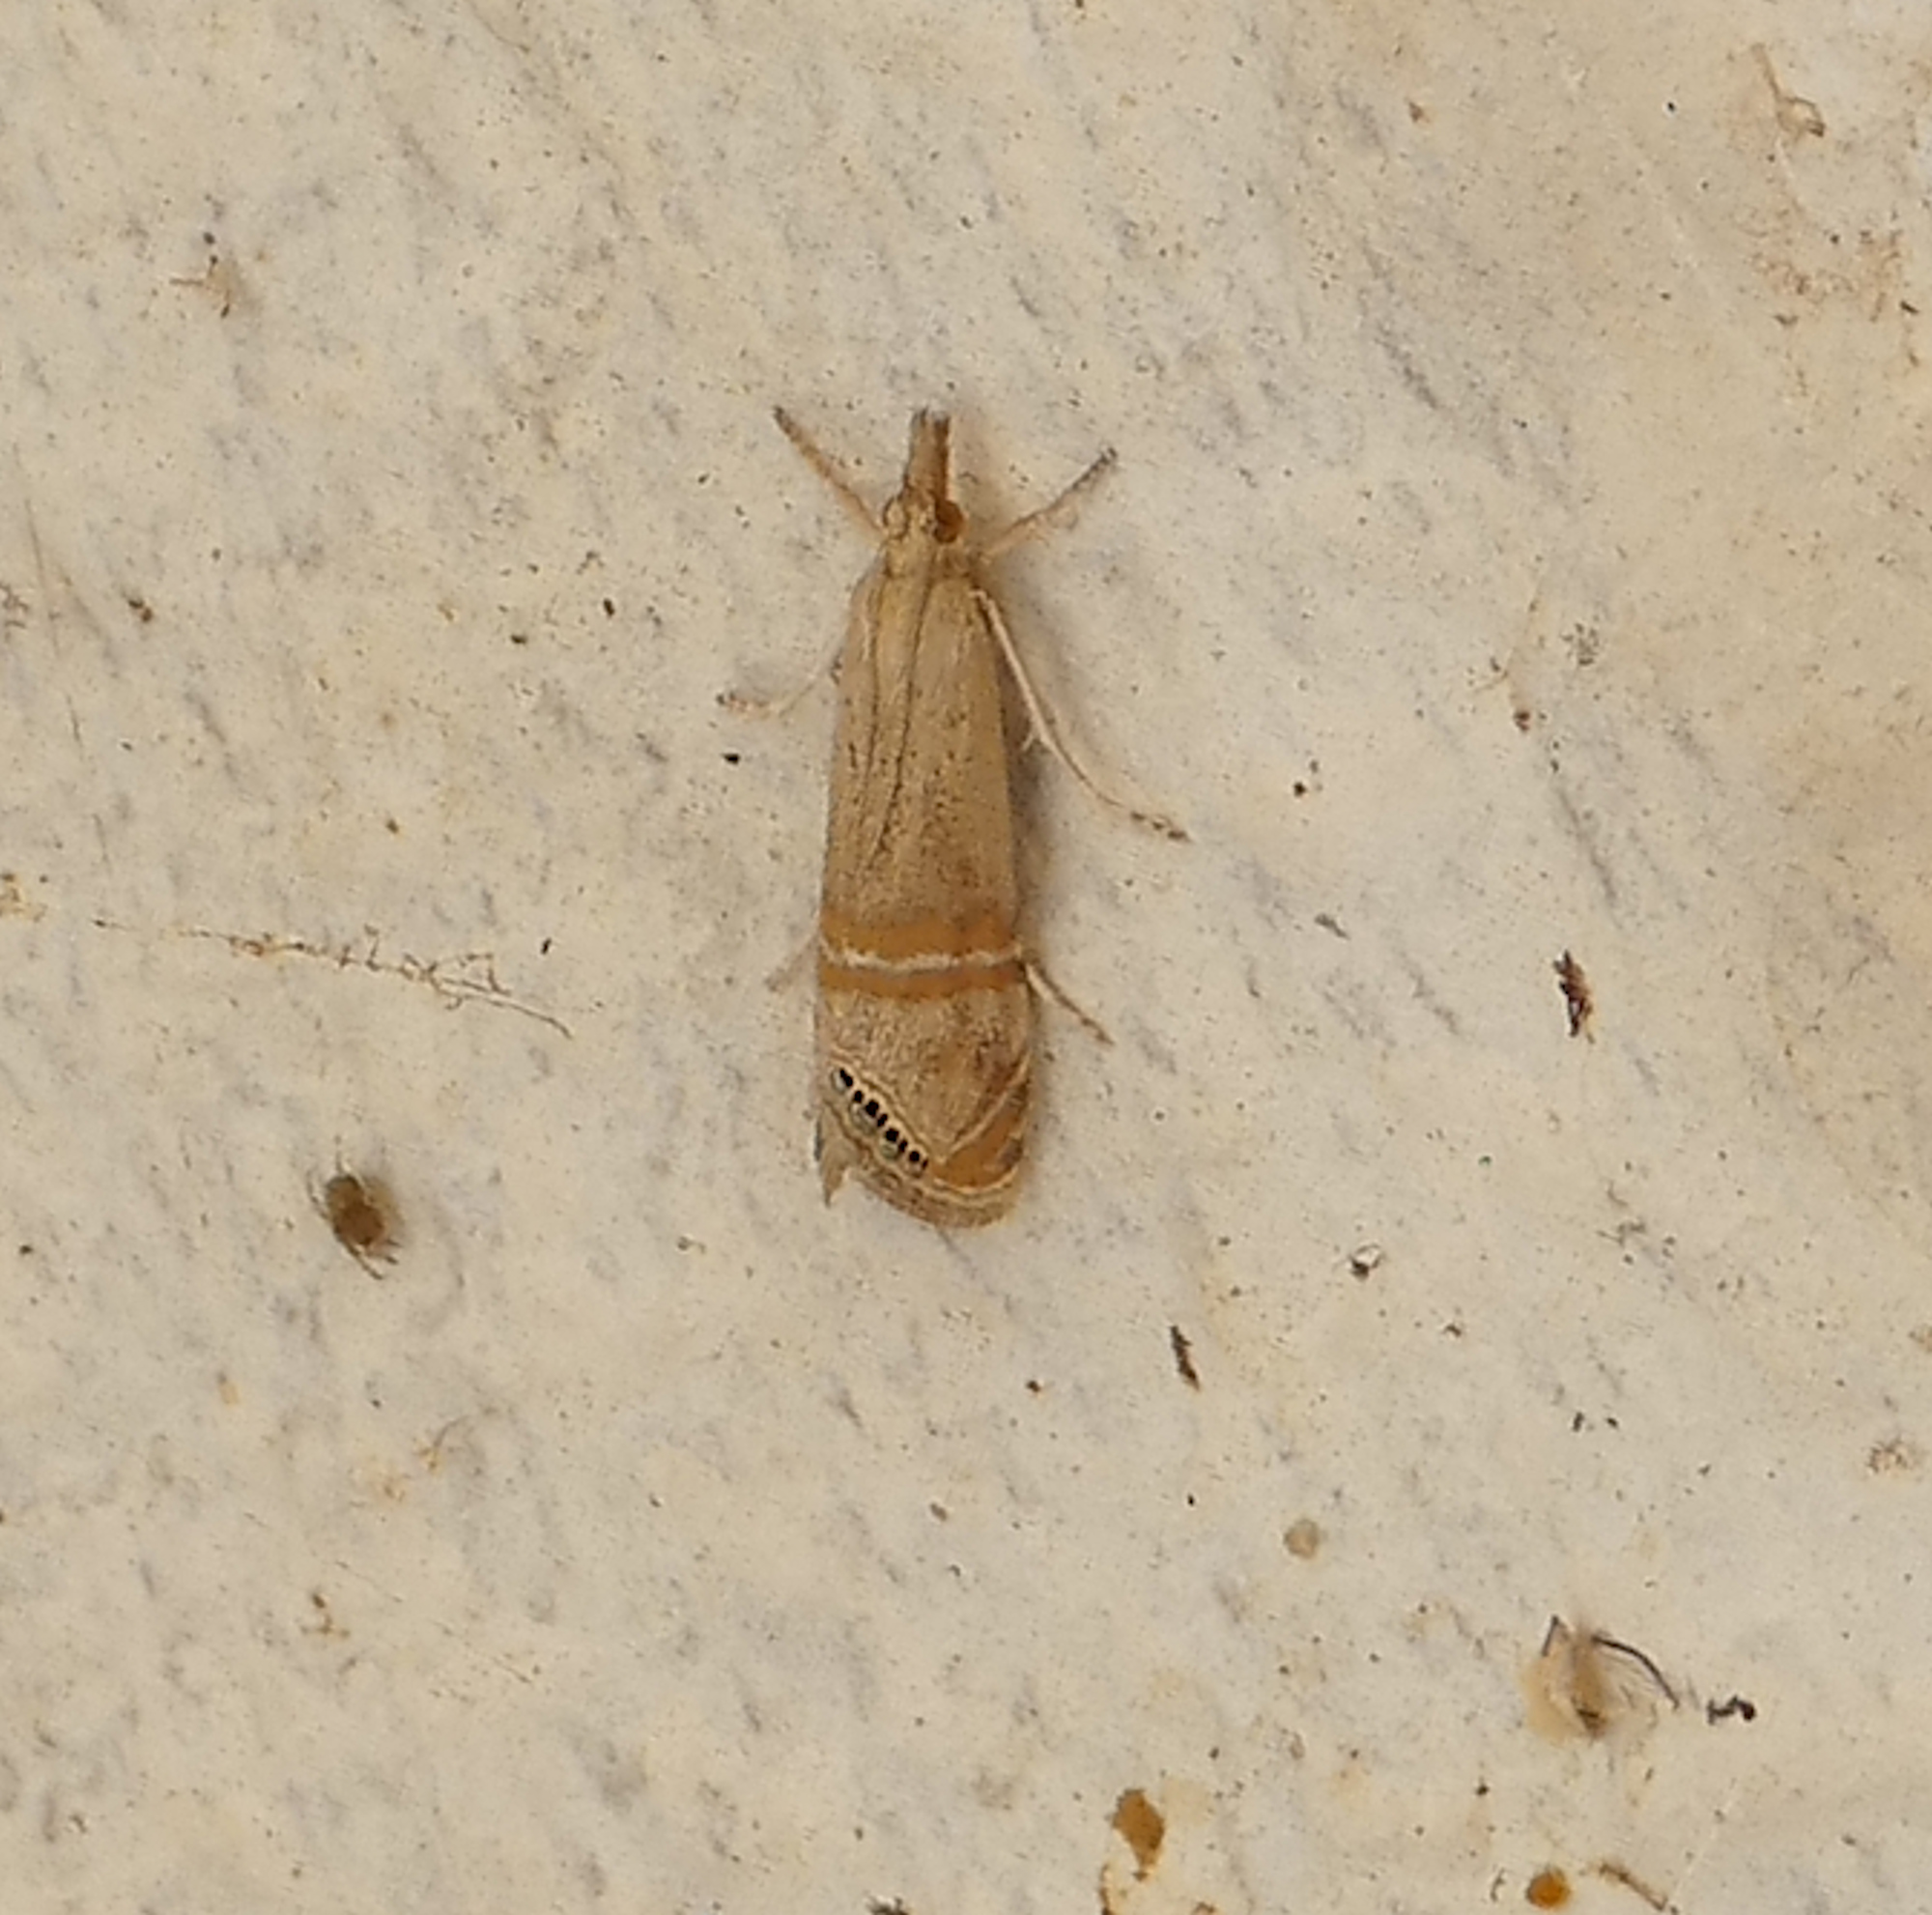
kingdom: Animalia
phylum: Arthropoda
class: Insecta
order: Lepidoptera
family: Crambidae
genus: Euchromius
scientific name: Euchromius ocellea
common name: Necklace veneer moth
